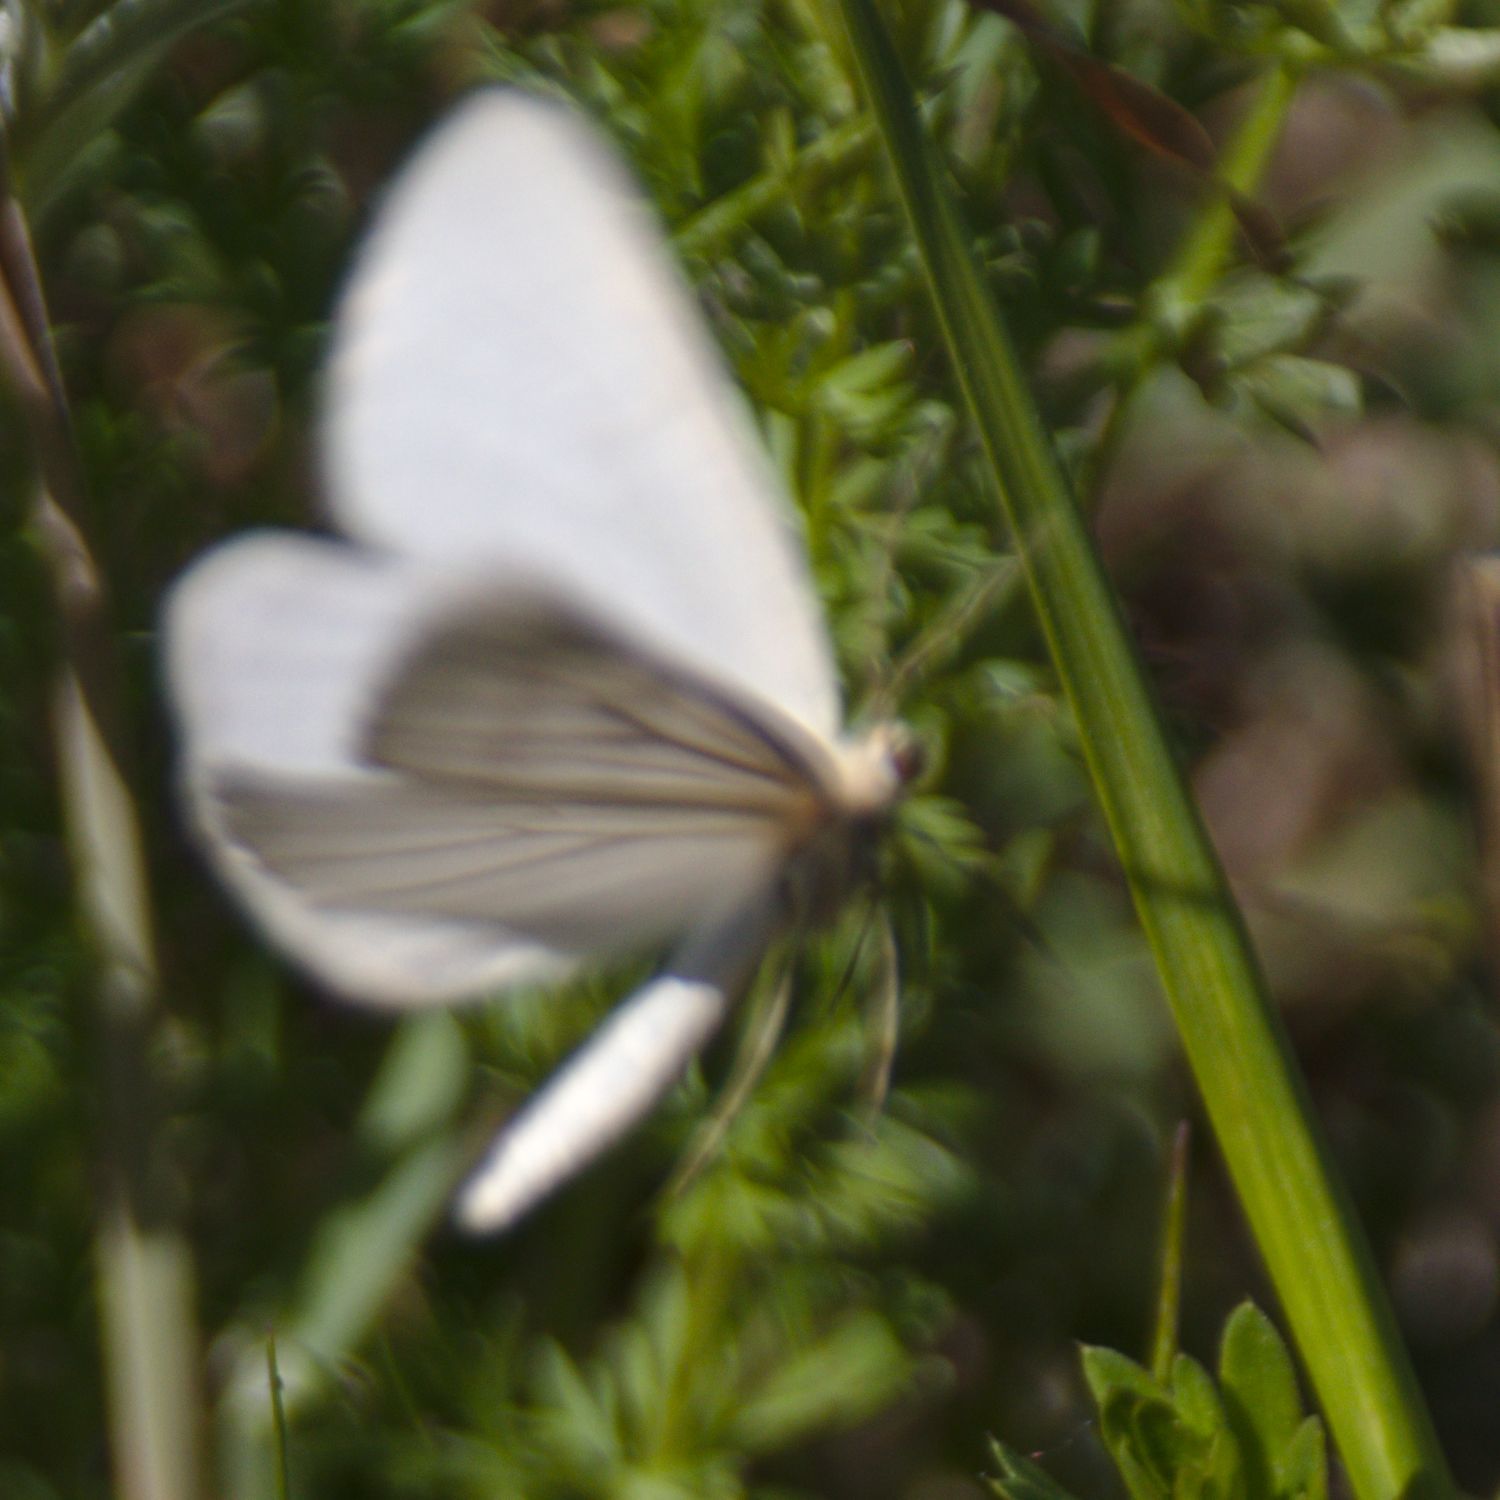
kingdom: Animalia
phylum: Arthropoda
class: Insecta
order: Lepidoptera
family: Geometridae
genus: Siona
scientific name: Siona lineata
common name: Black-veined moth
